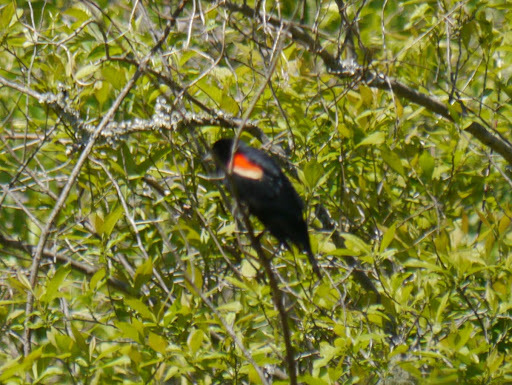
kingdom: Animalia
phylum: Chordata
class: Aves
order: Passeriformes
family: Icteridae
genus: Agelaius
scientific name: Agelaius phoeniceus
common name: Red-winged blackbird
